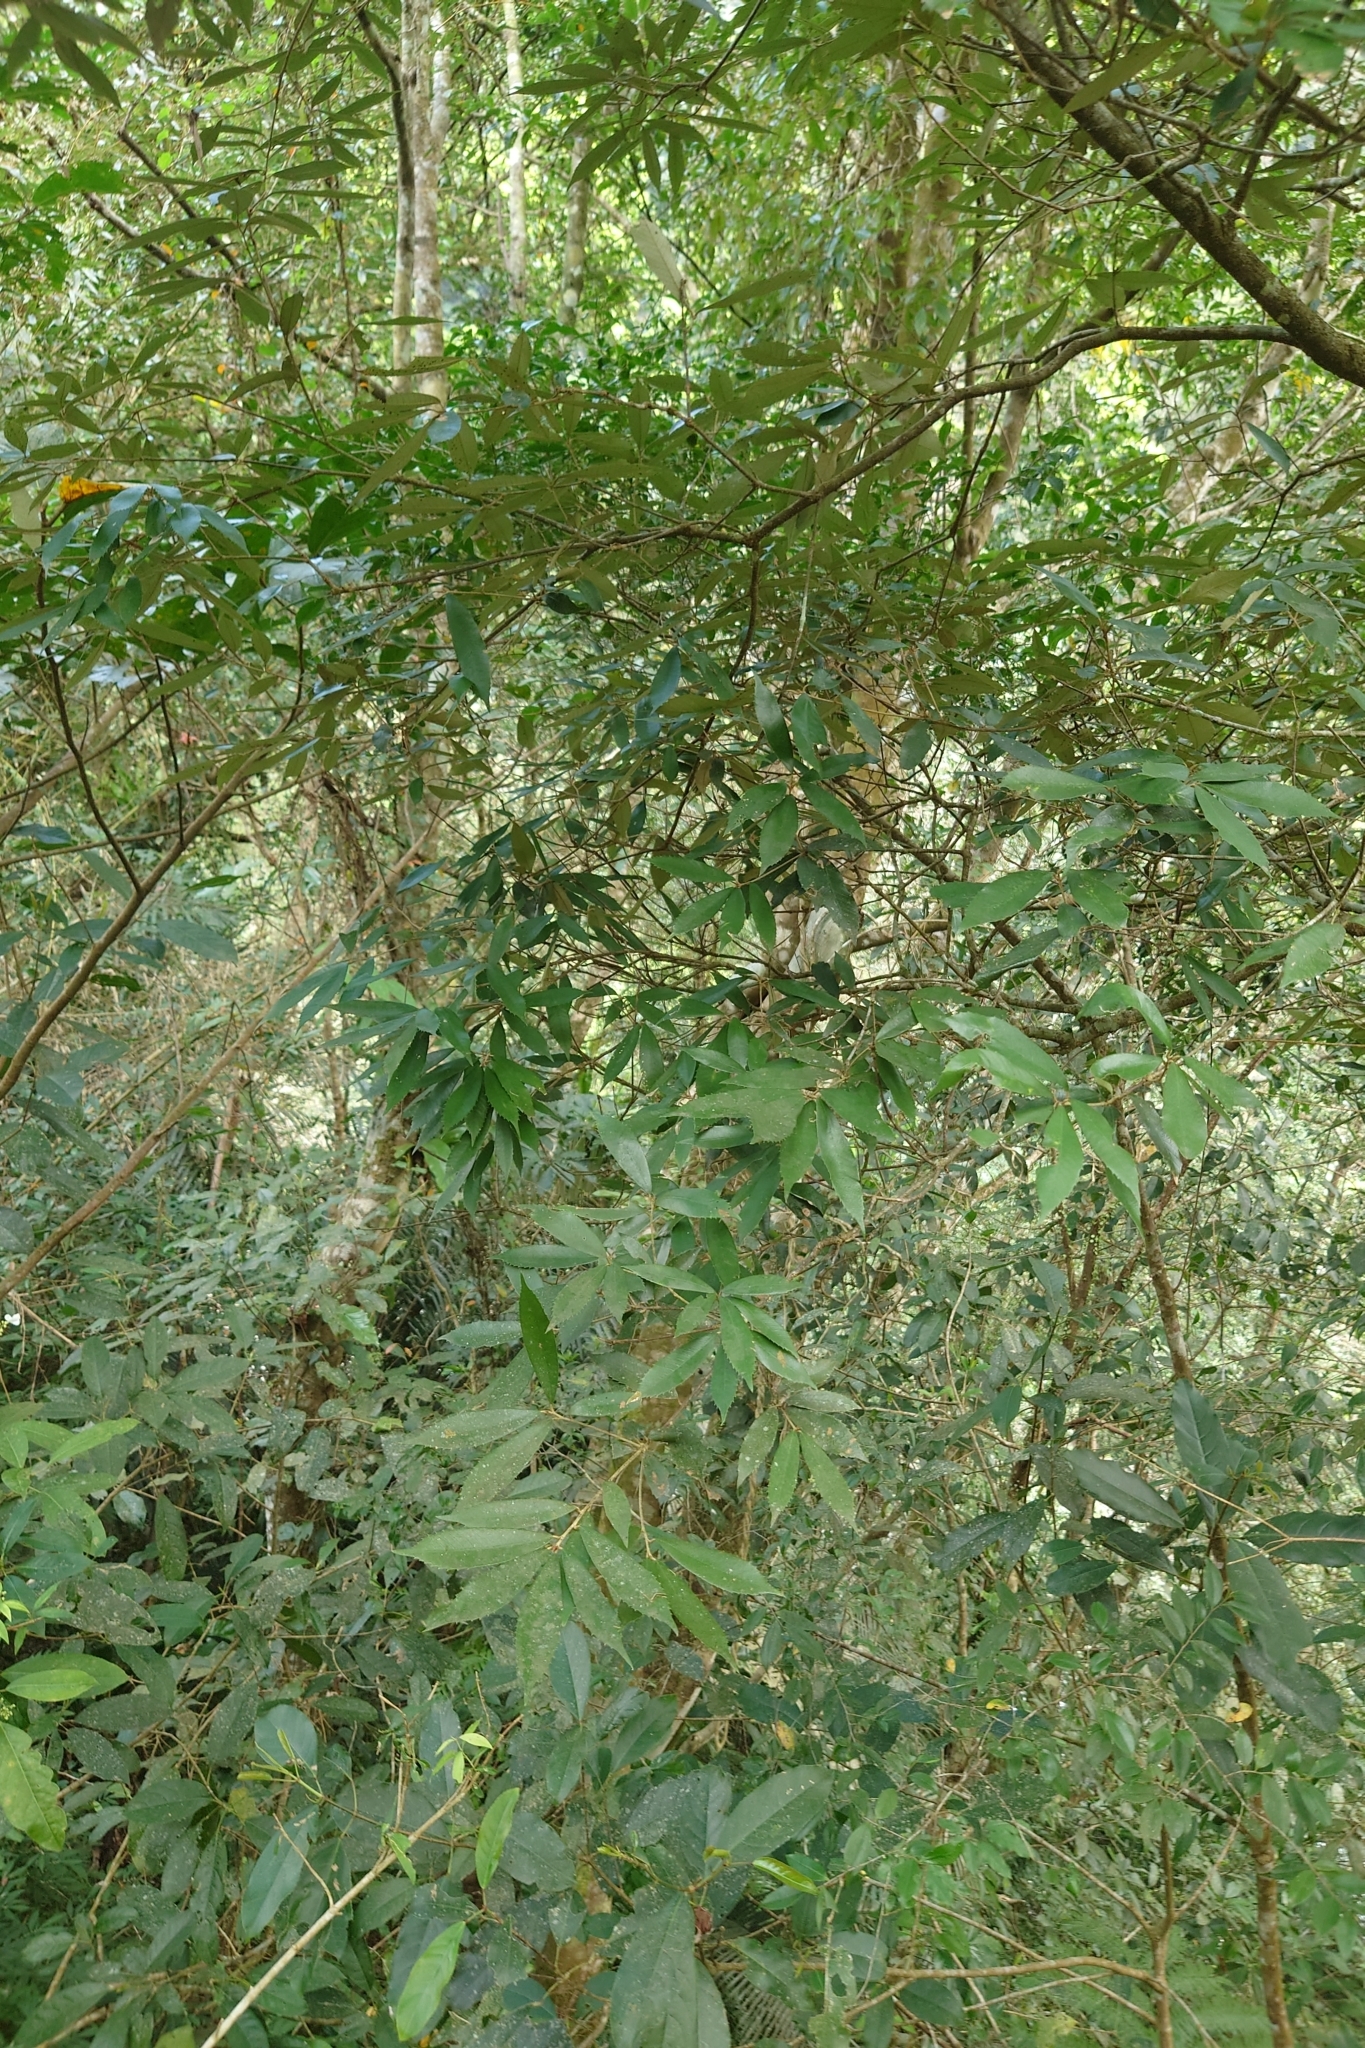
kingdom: Plantae
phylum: Tracheophyta
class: Magnoliopsida
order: Fagales
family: Fagaceae
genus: Quercus
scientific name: Quercus gilva
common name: Redbark oak
